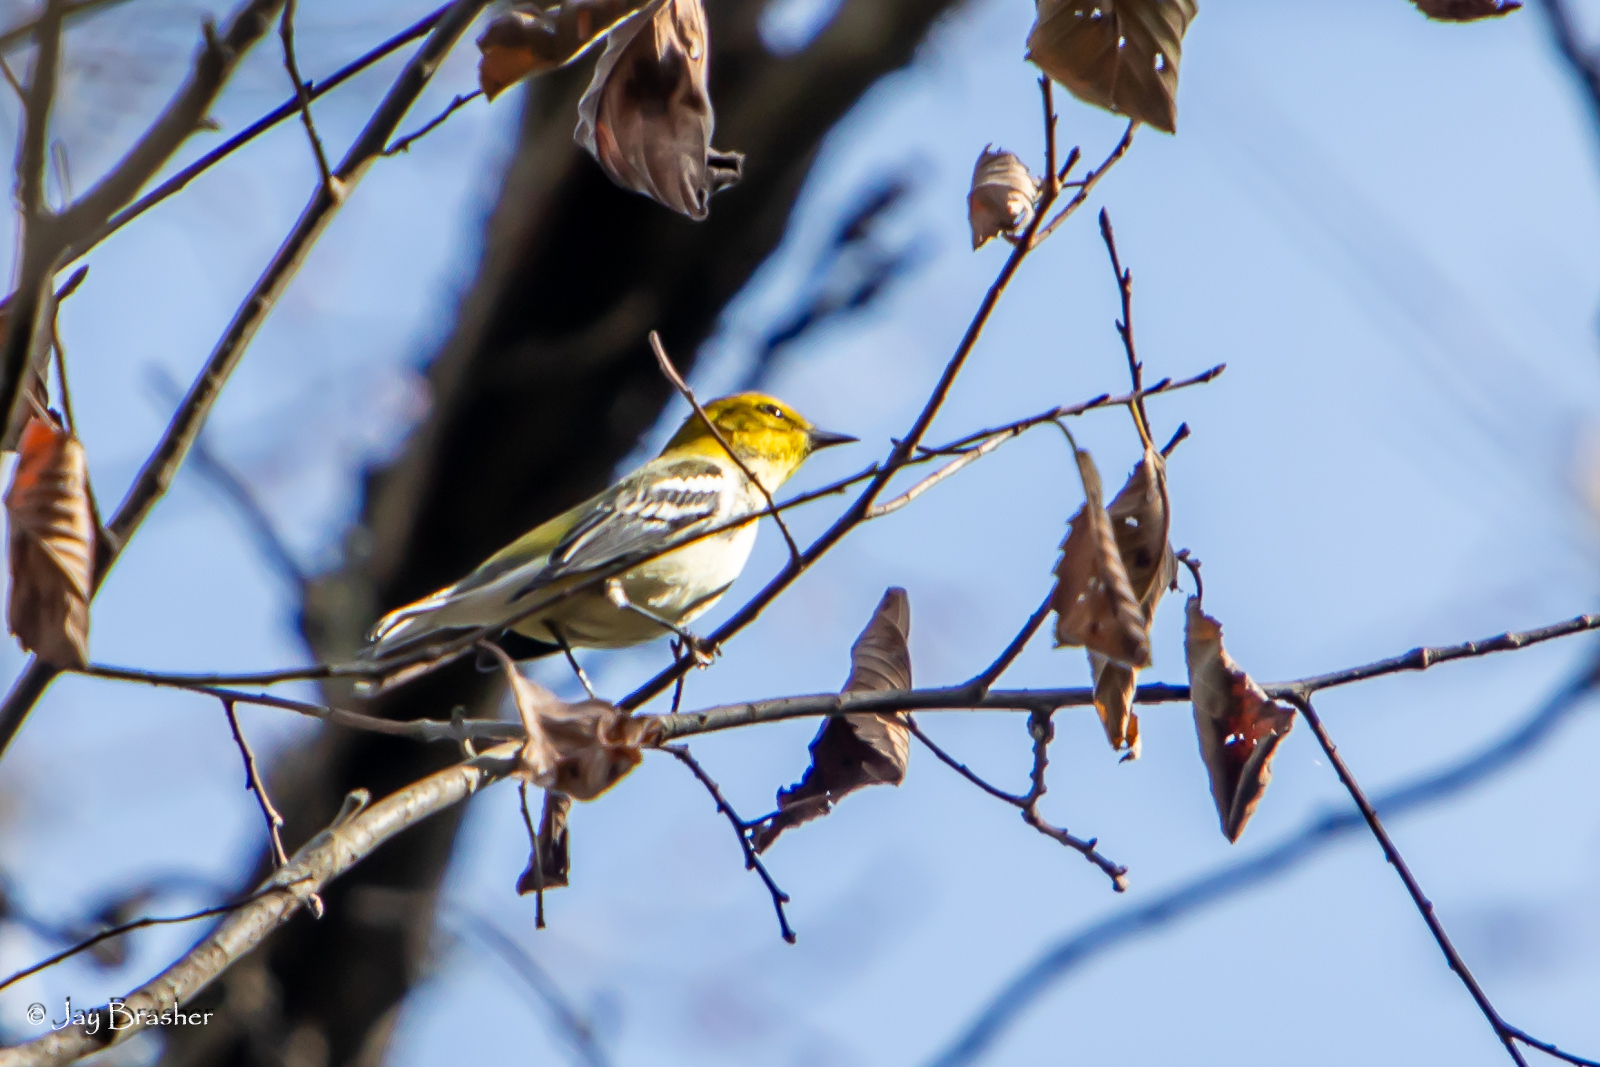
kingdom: Animalia
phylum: Chordata
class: Aves
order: Passeriformes
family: Parulidae
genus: Setophaga
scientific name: Setophaga virens
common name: Black-throated green warbler
